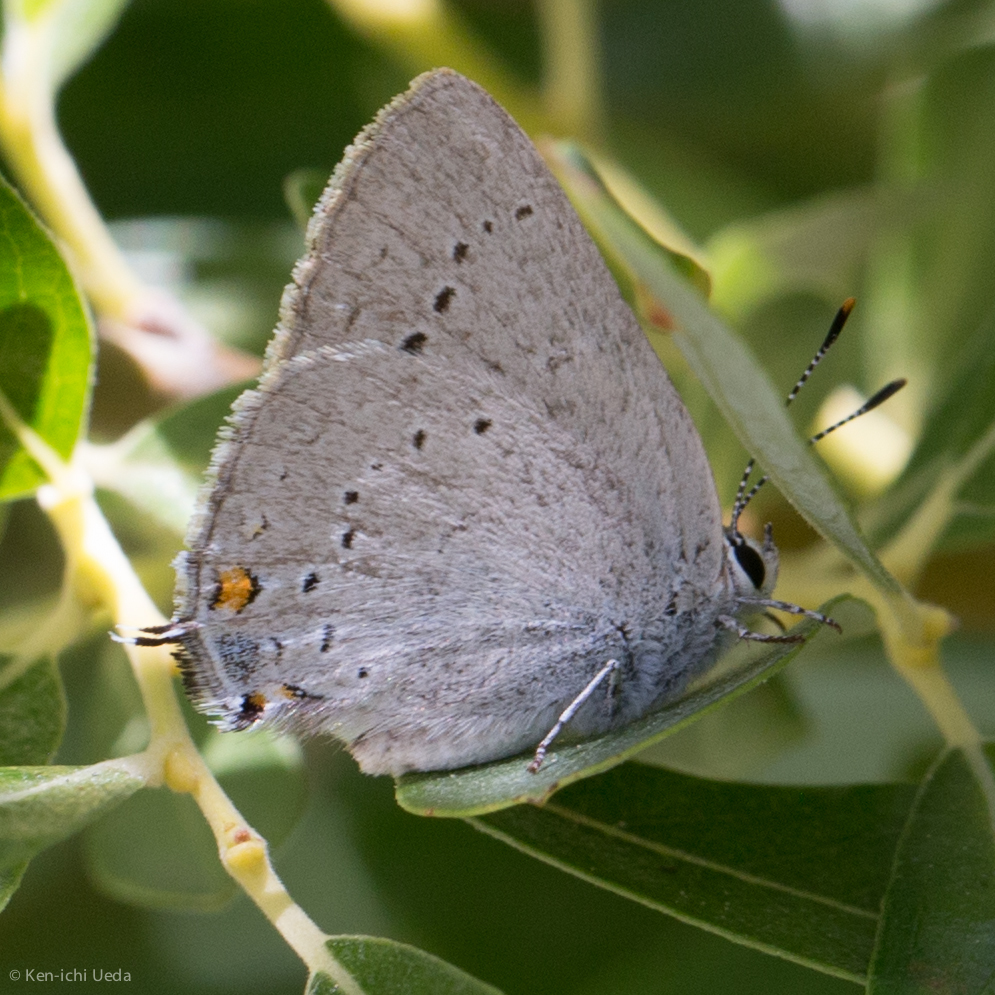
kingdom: Animalia
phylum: Arthropoda
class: Insecta
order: Lepidoptera
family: Lycaenidae
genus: Strymon
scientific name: Strymon sylvinus
